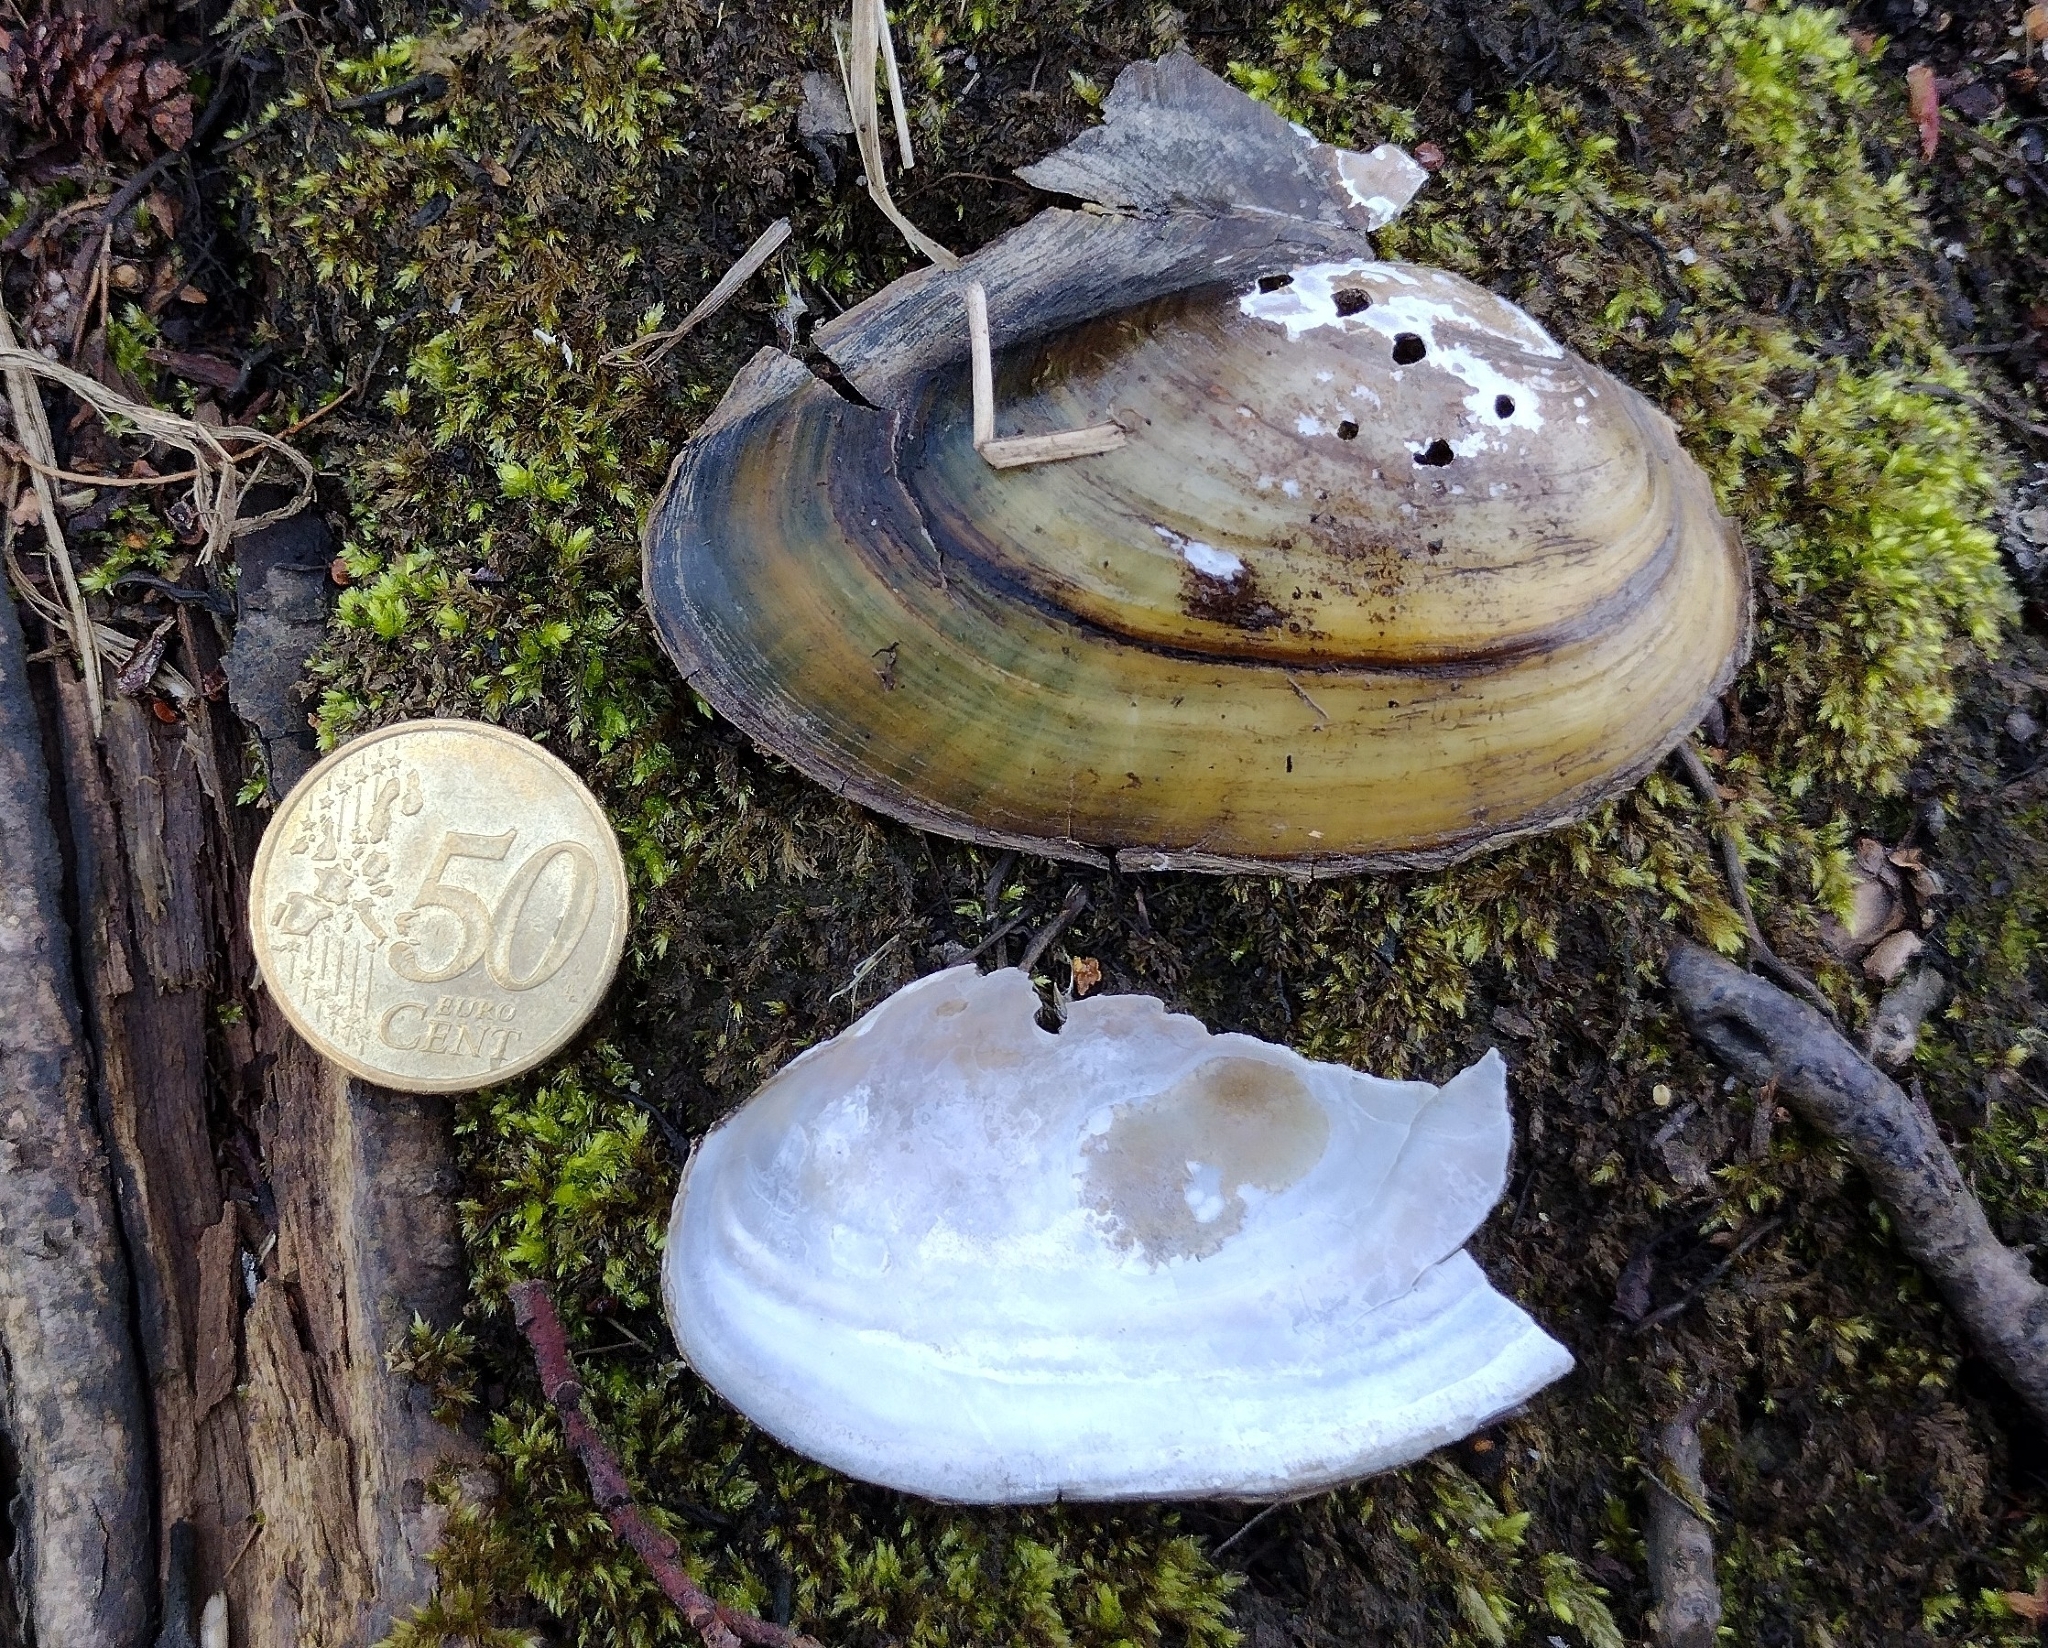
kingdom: Animalia
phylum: Mollusca
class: Bivalvia
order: Unionida
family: Unionidae
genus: Anodonta
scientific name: Anodonta anatina
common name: Duck mussel
